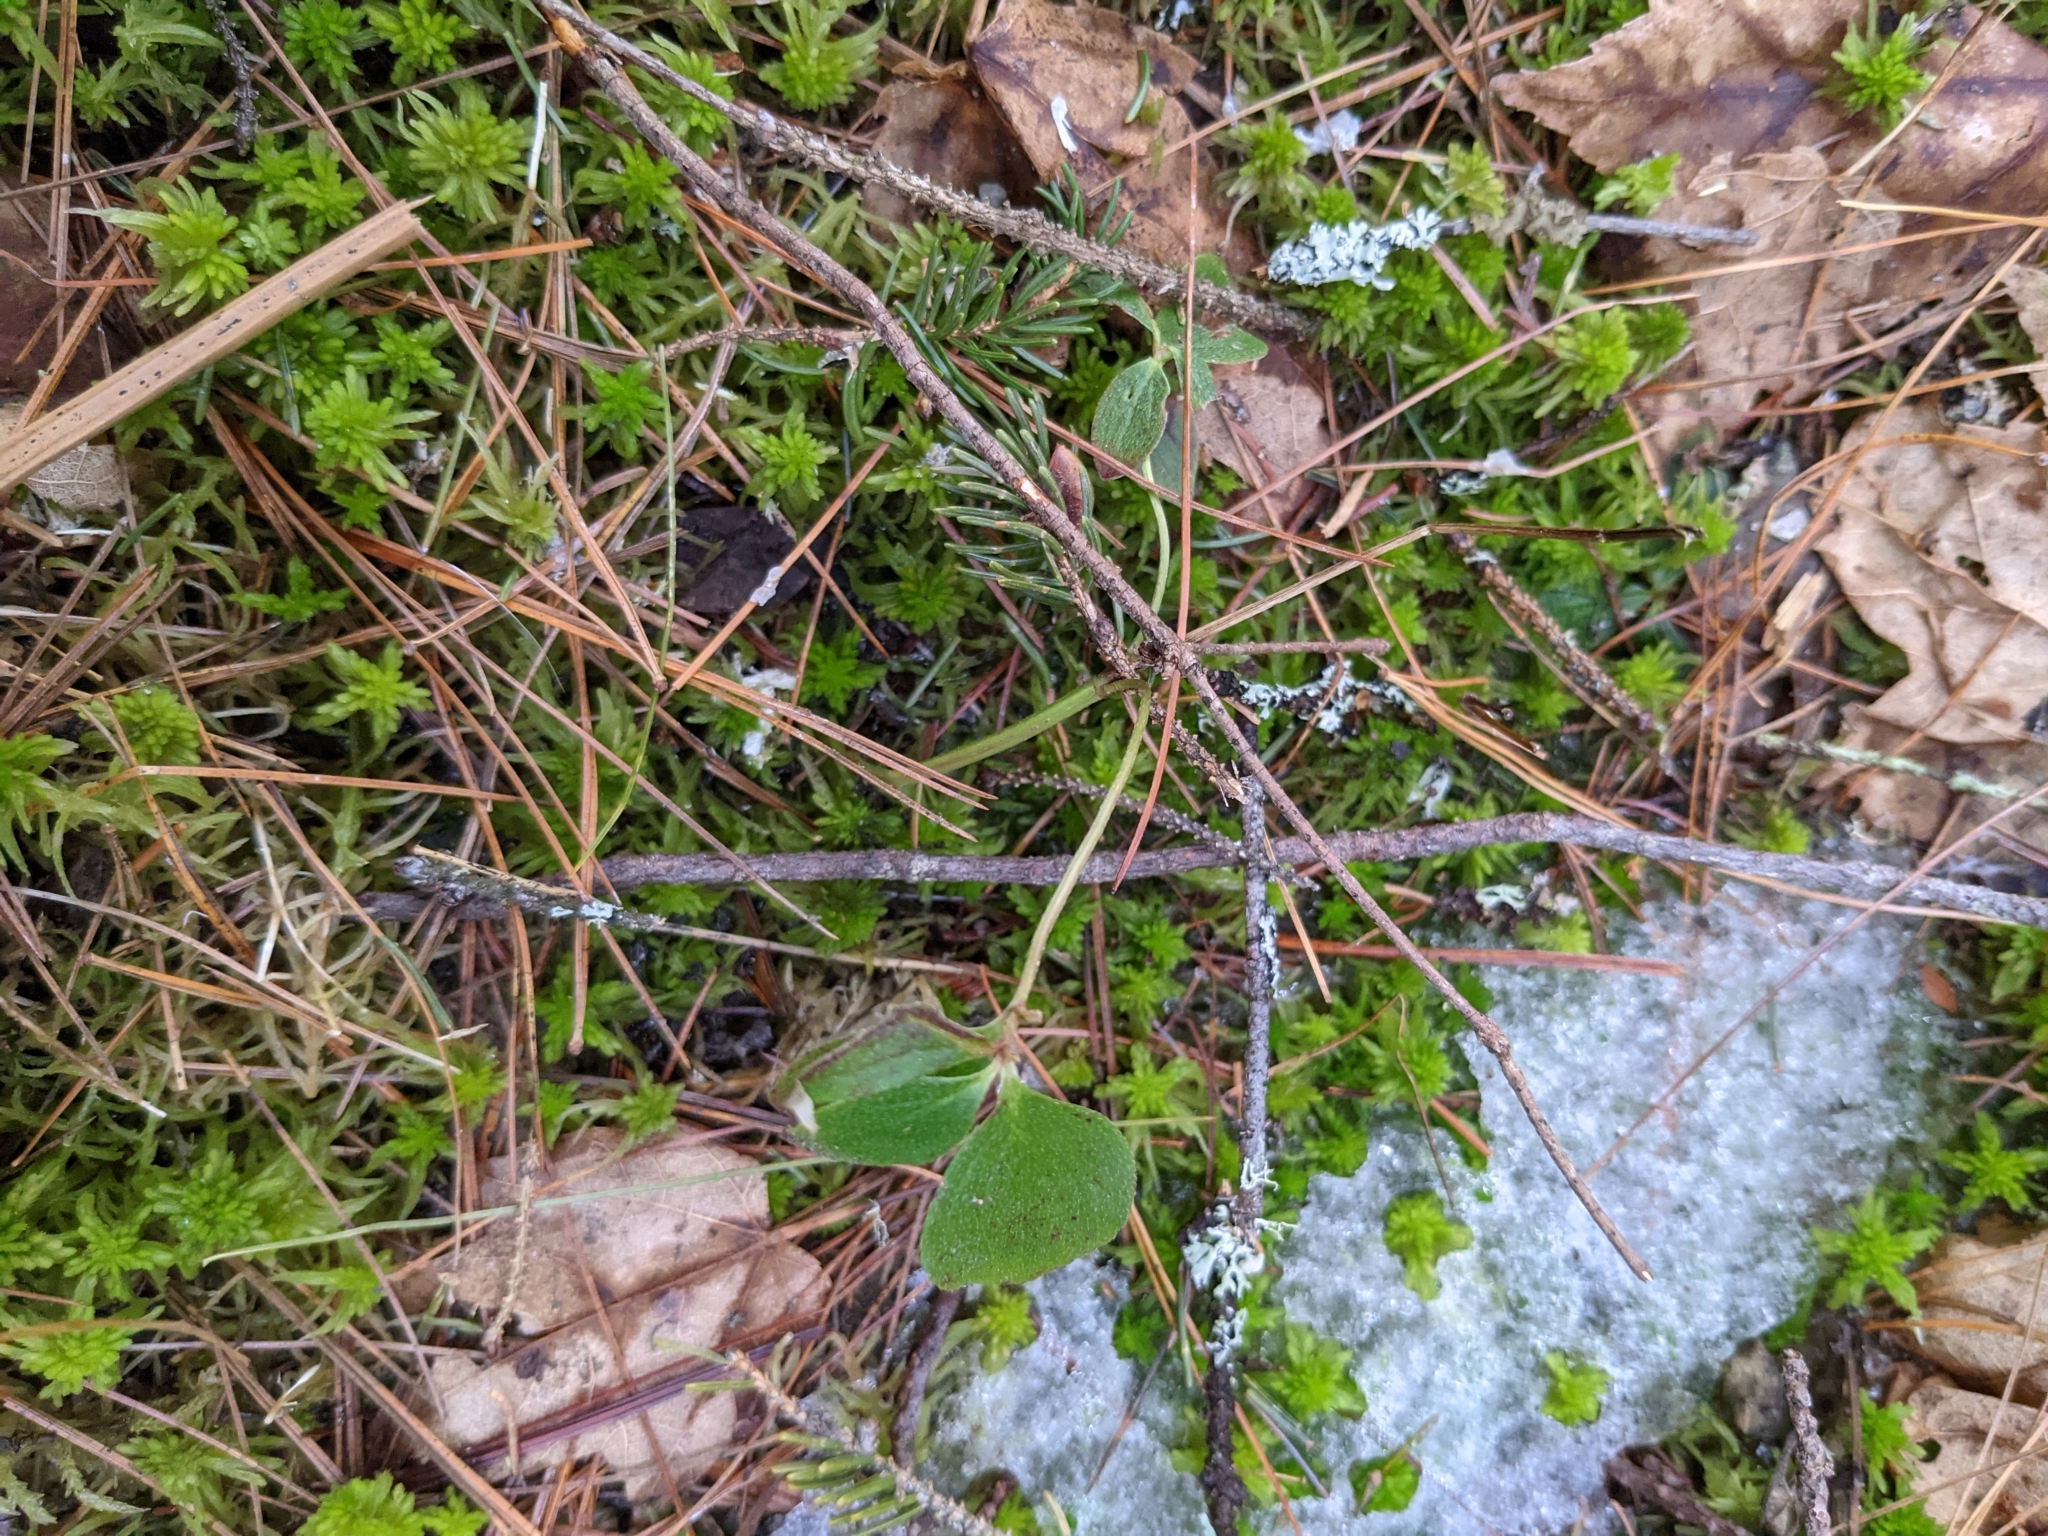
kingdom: Plantae
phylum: Tracheophyta
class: Magnoliopsida
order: Cornales
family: Cornaceae
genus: Cornus
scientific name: Cornus canadensis
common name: Creeping dogwood
